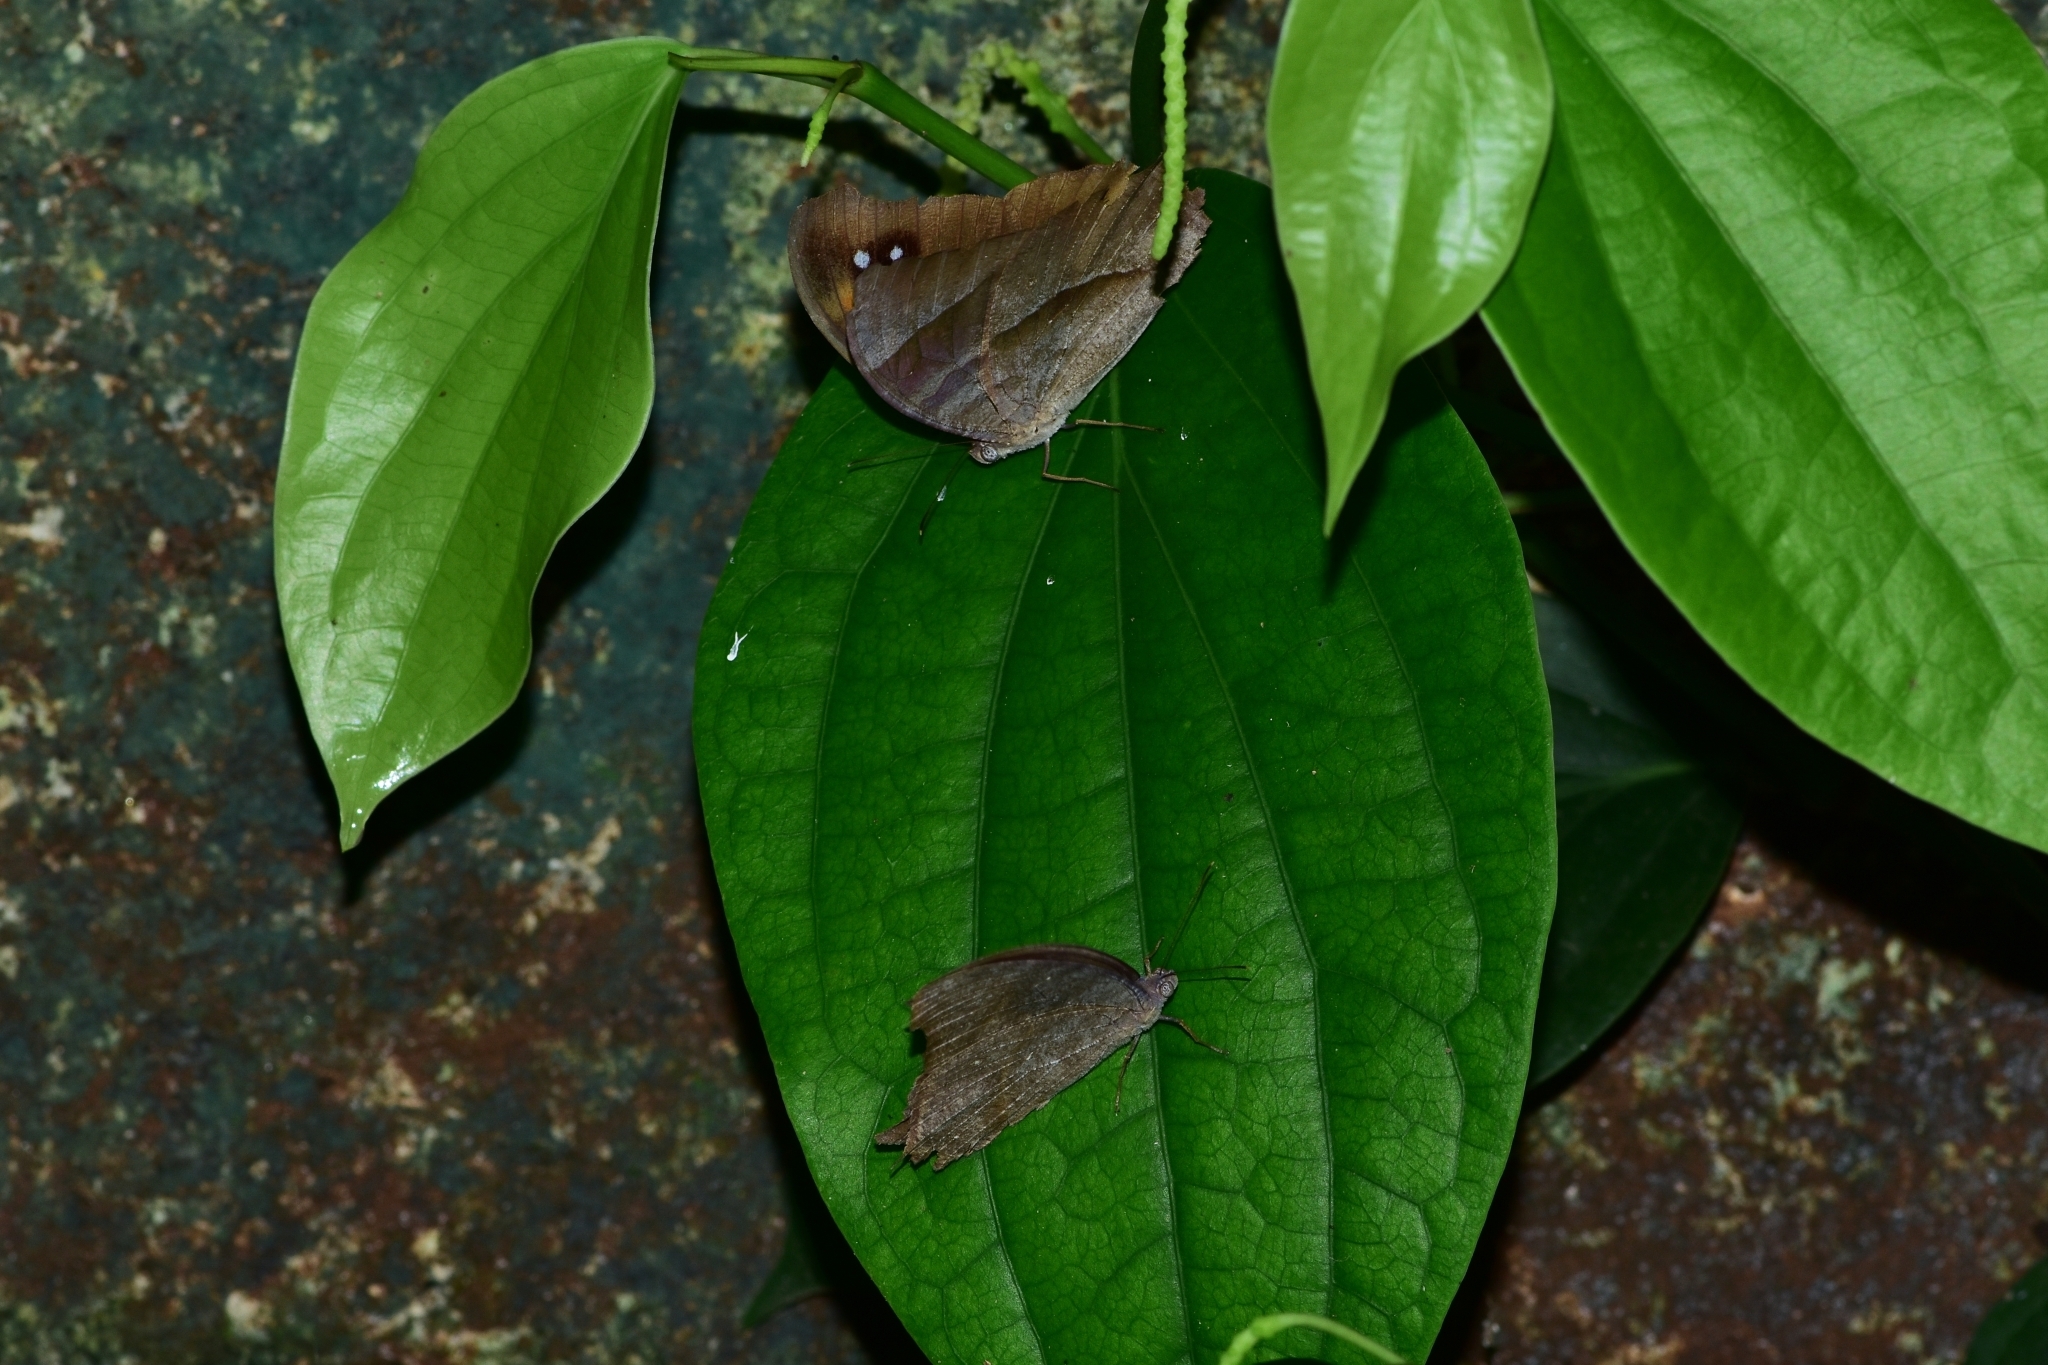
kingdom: Animalia
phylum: Arthropoda
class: Insecta
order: Lepidoptera
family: Nymphalidae
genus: Melanitis
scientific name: Melanitis leda
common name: Twilight brown
